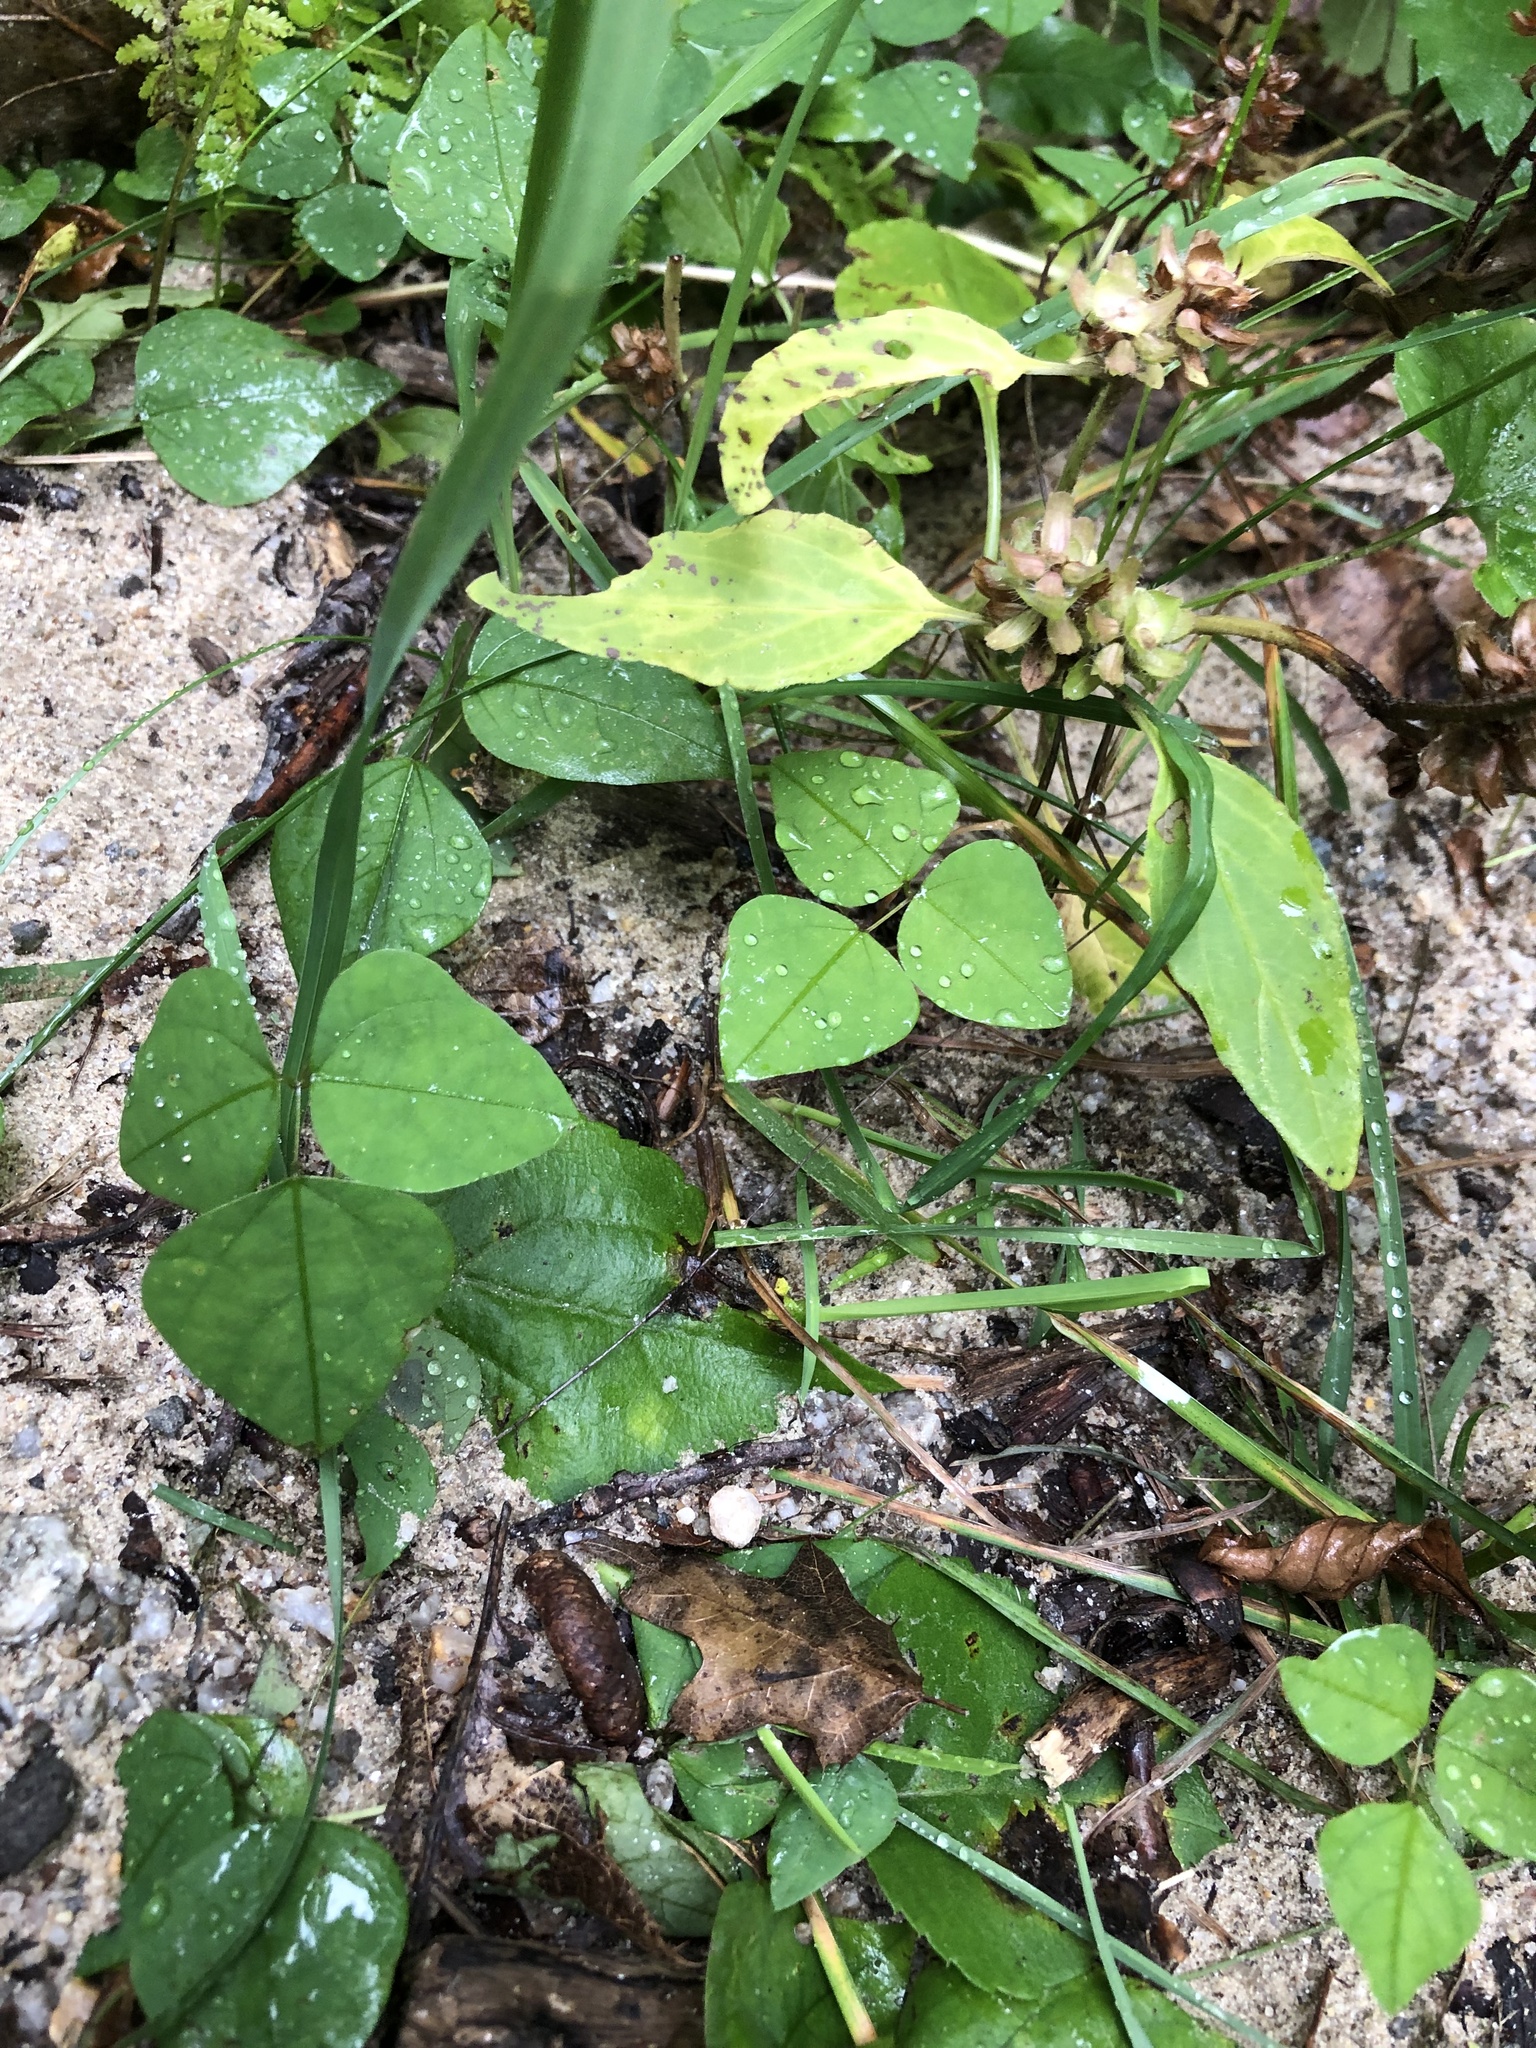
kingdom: Plantae
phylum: Tracheophyta
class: Magnoliopsida
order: Fabales
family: Fabaceae
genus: Amphicarpaea
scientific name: Amphicarpaea bracteata
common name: American hog peanut
